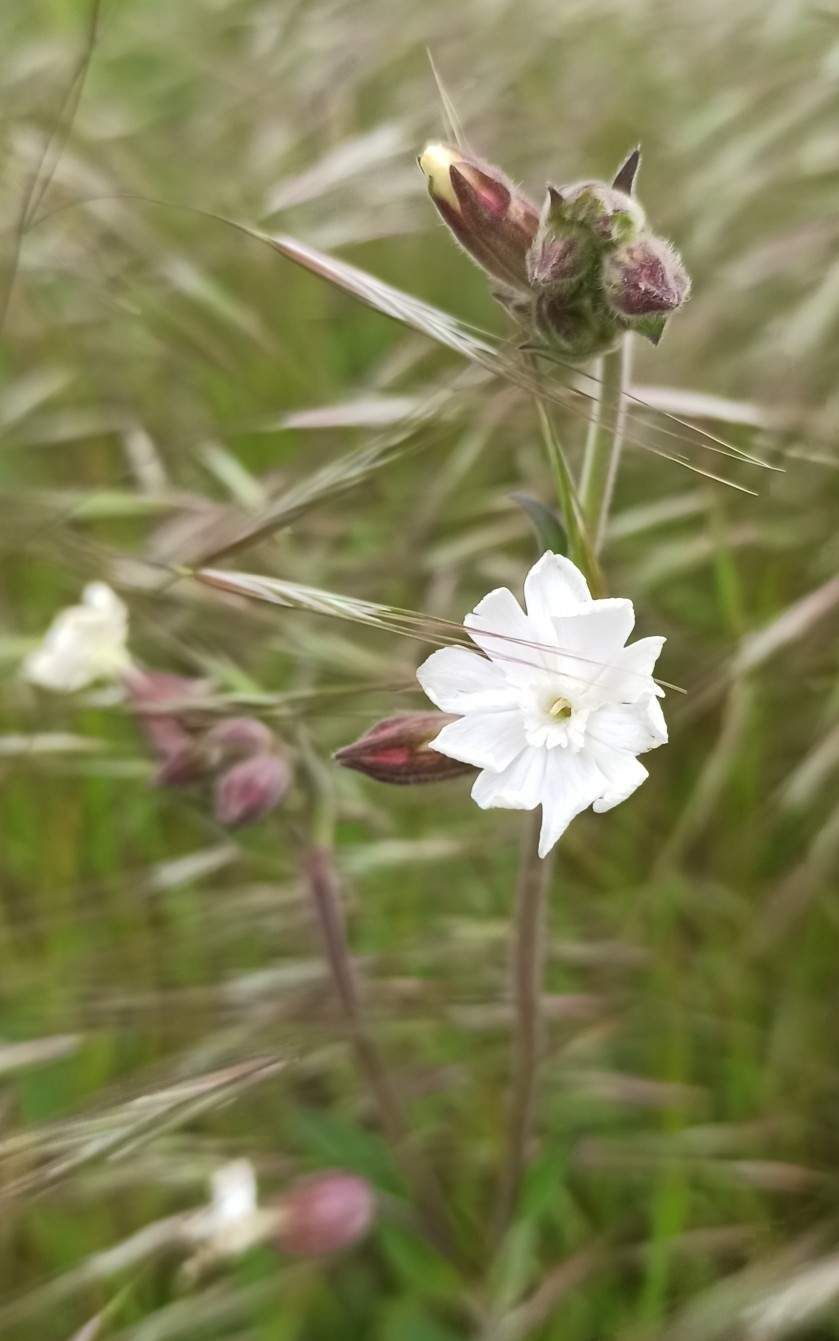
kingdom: Plantae
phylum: Tracheophyta
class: Magnoliopsida
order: Caryophyllales
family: Caryophyllaceae
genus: Silene
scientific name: Silene latifolia
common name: White campion
